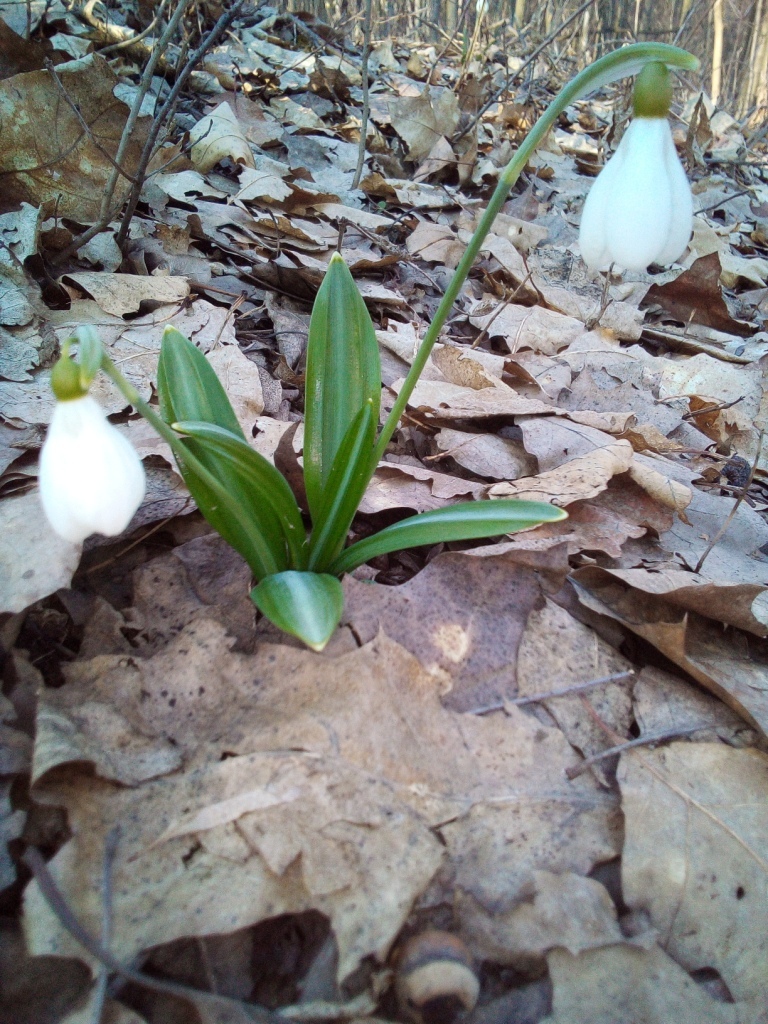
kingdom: Plantae
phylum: Tracheophyta
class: Liliopsida
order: Asparagales
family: Amaryllidaceae
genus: Galanthus
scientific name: Galanthus plicatus
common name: Pleated snowdrop
